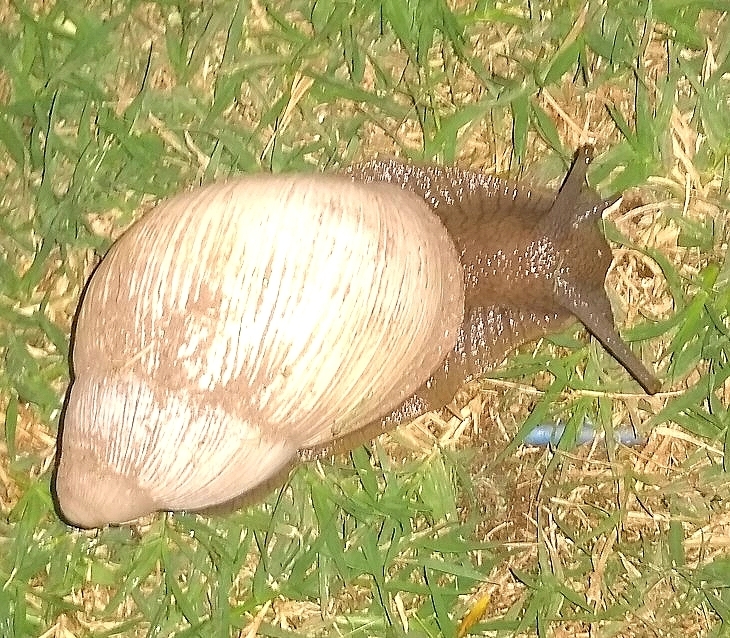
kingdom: Animalia
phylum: Mollusca
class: Gastropoda
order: Stylommatophora
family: Strophocheilidae
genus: Megalobulimus
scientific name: Megalobulimus
